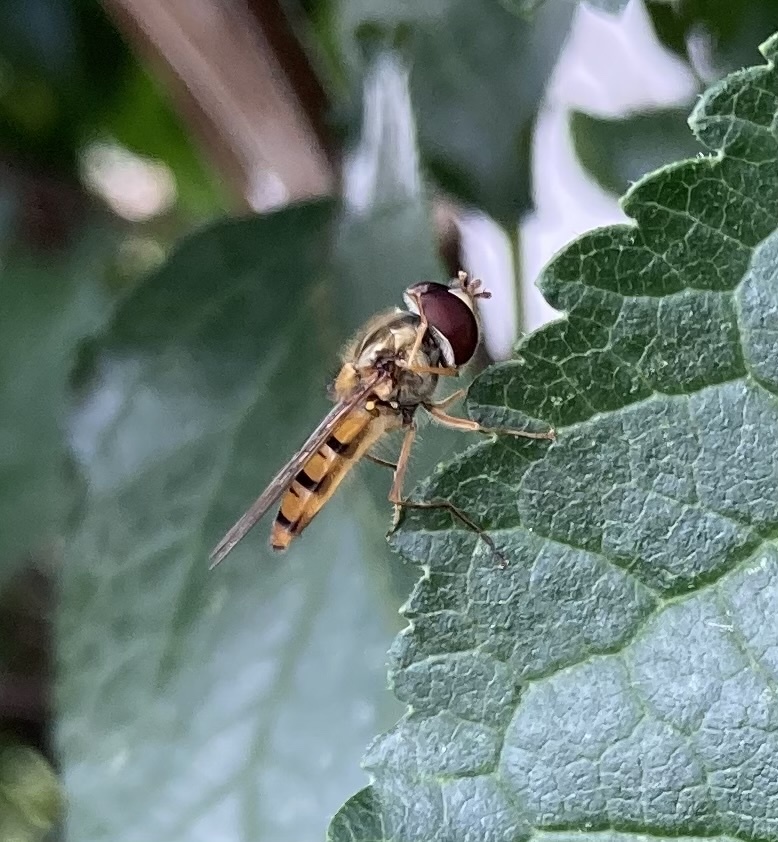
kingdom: Animalia
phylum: Arthropoda
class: Insecta
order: Diptera
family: Syrphidae
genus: Episyrphus
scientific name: Episyrphus balteatus
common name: Marmalade hoverfly
